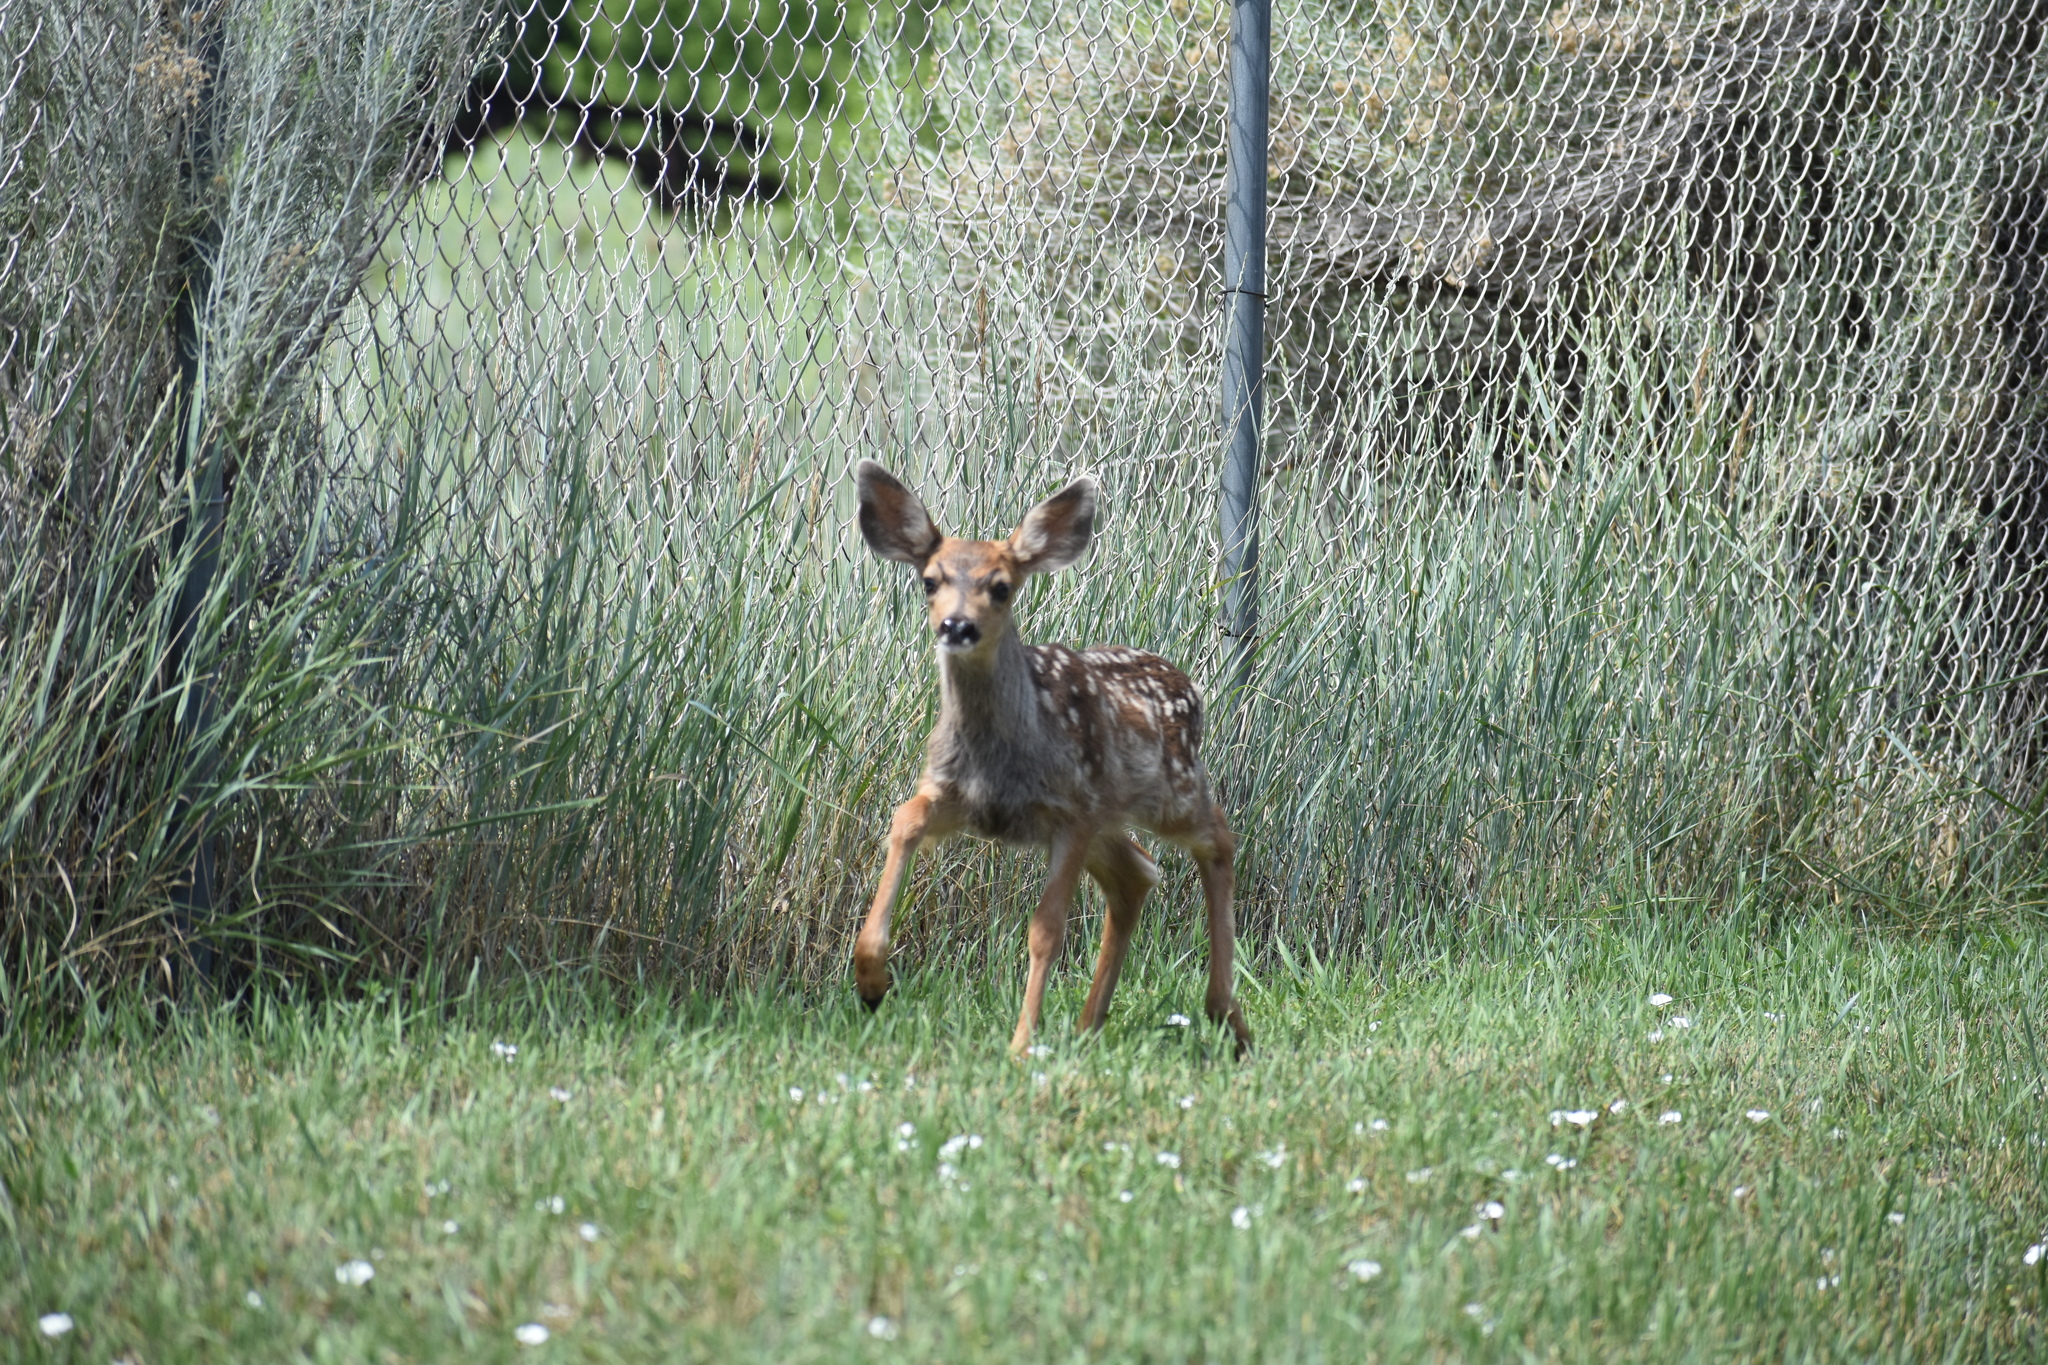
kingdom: Animalia
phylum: Chordata
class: Mammalia
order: Artiodactyla
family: Cervidae
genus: Odocoileus
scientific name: Odocoileus hemionus
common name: Mule deer
